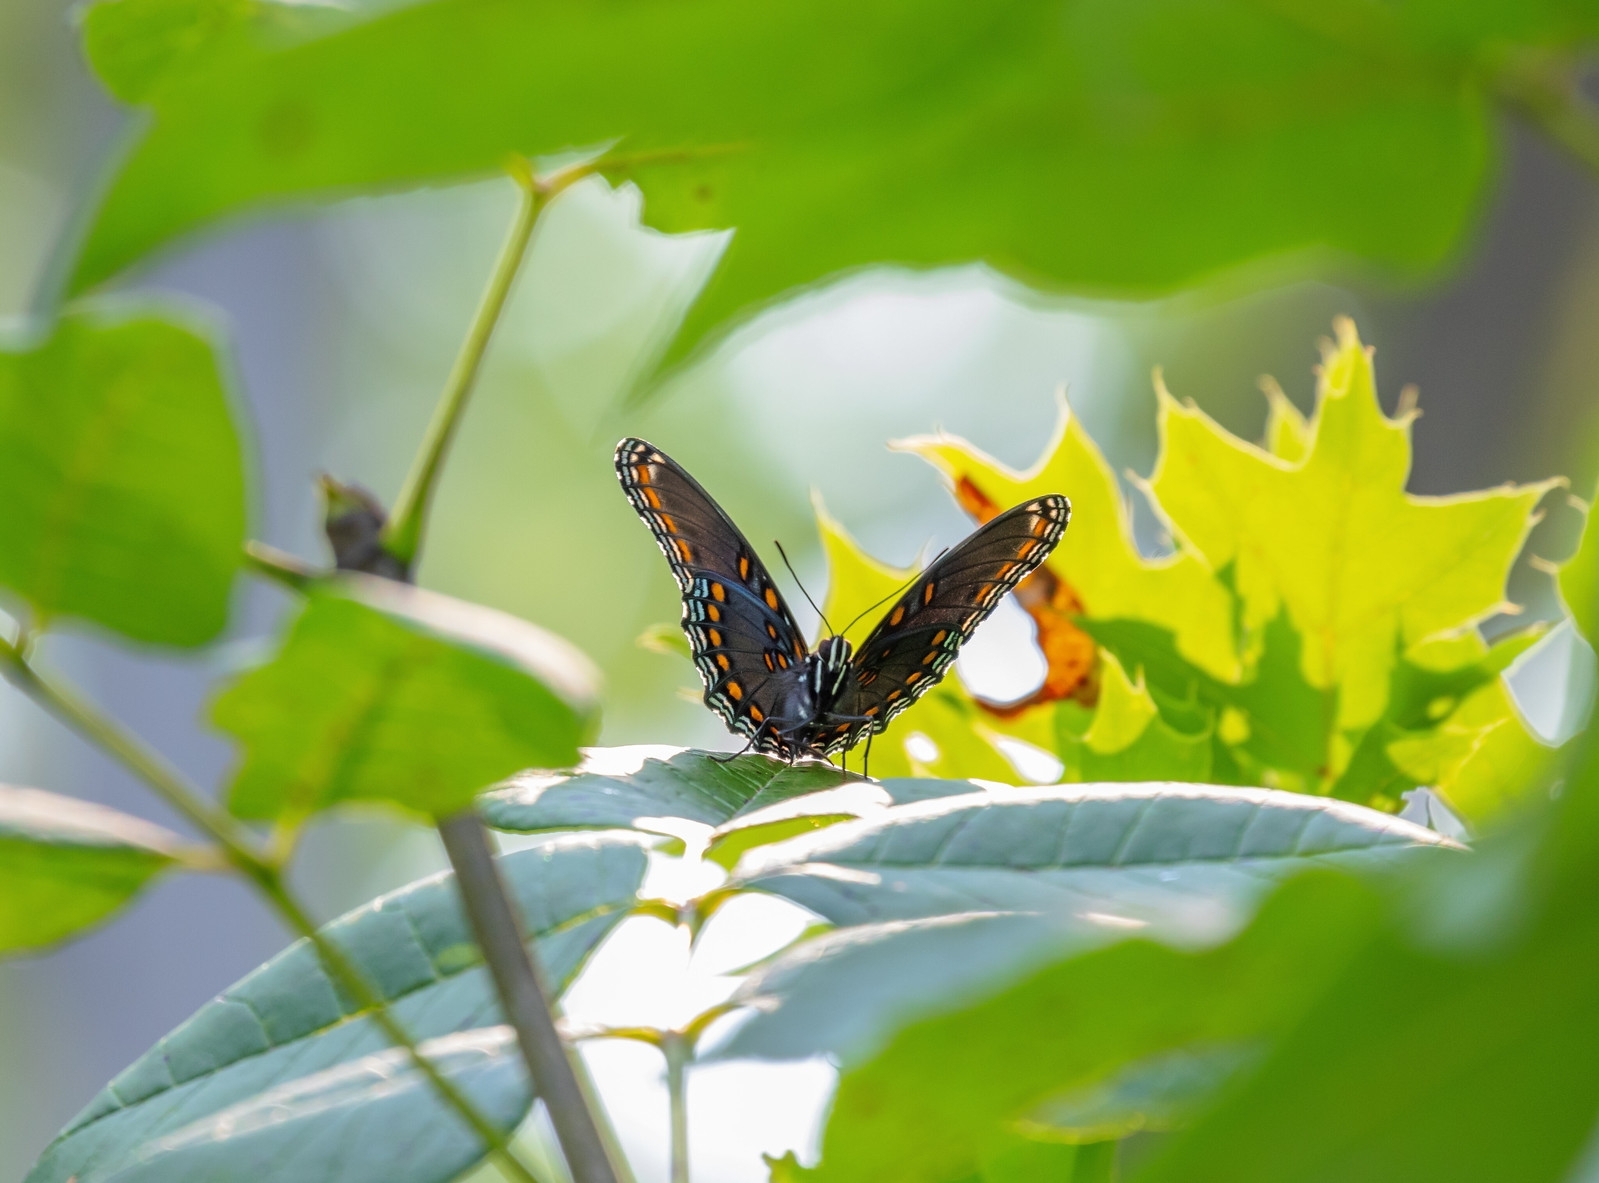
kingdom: Animalia
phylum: Arthropoda
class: Insecta
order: Lepidoptera
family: Nymphalidae
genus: Limenitis
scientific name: Limenitis astyanax
